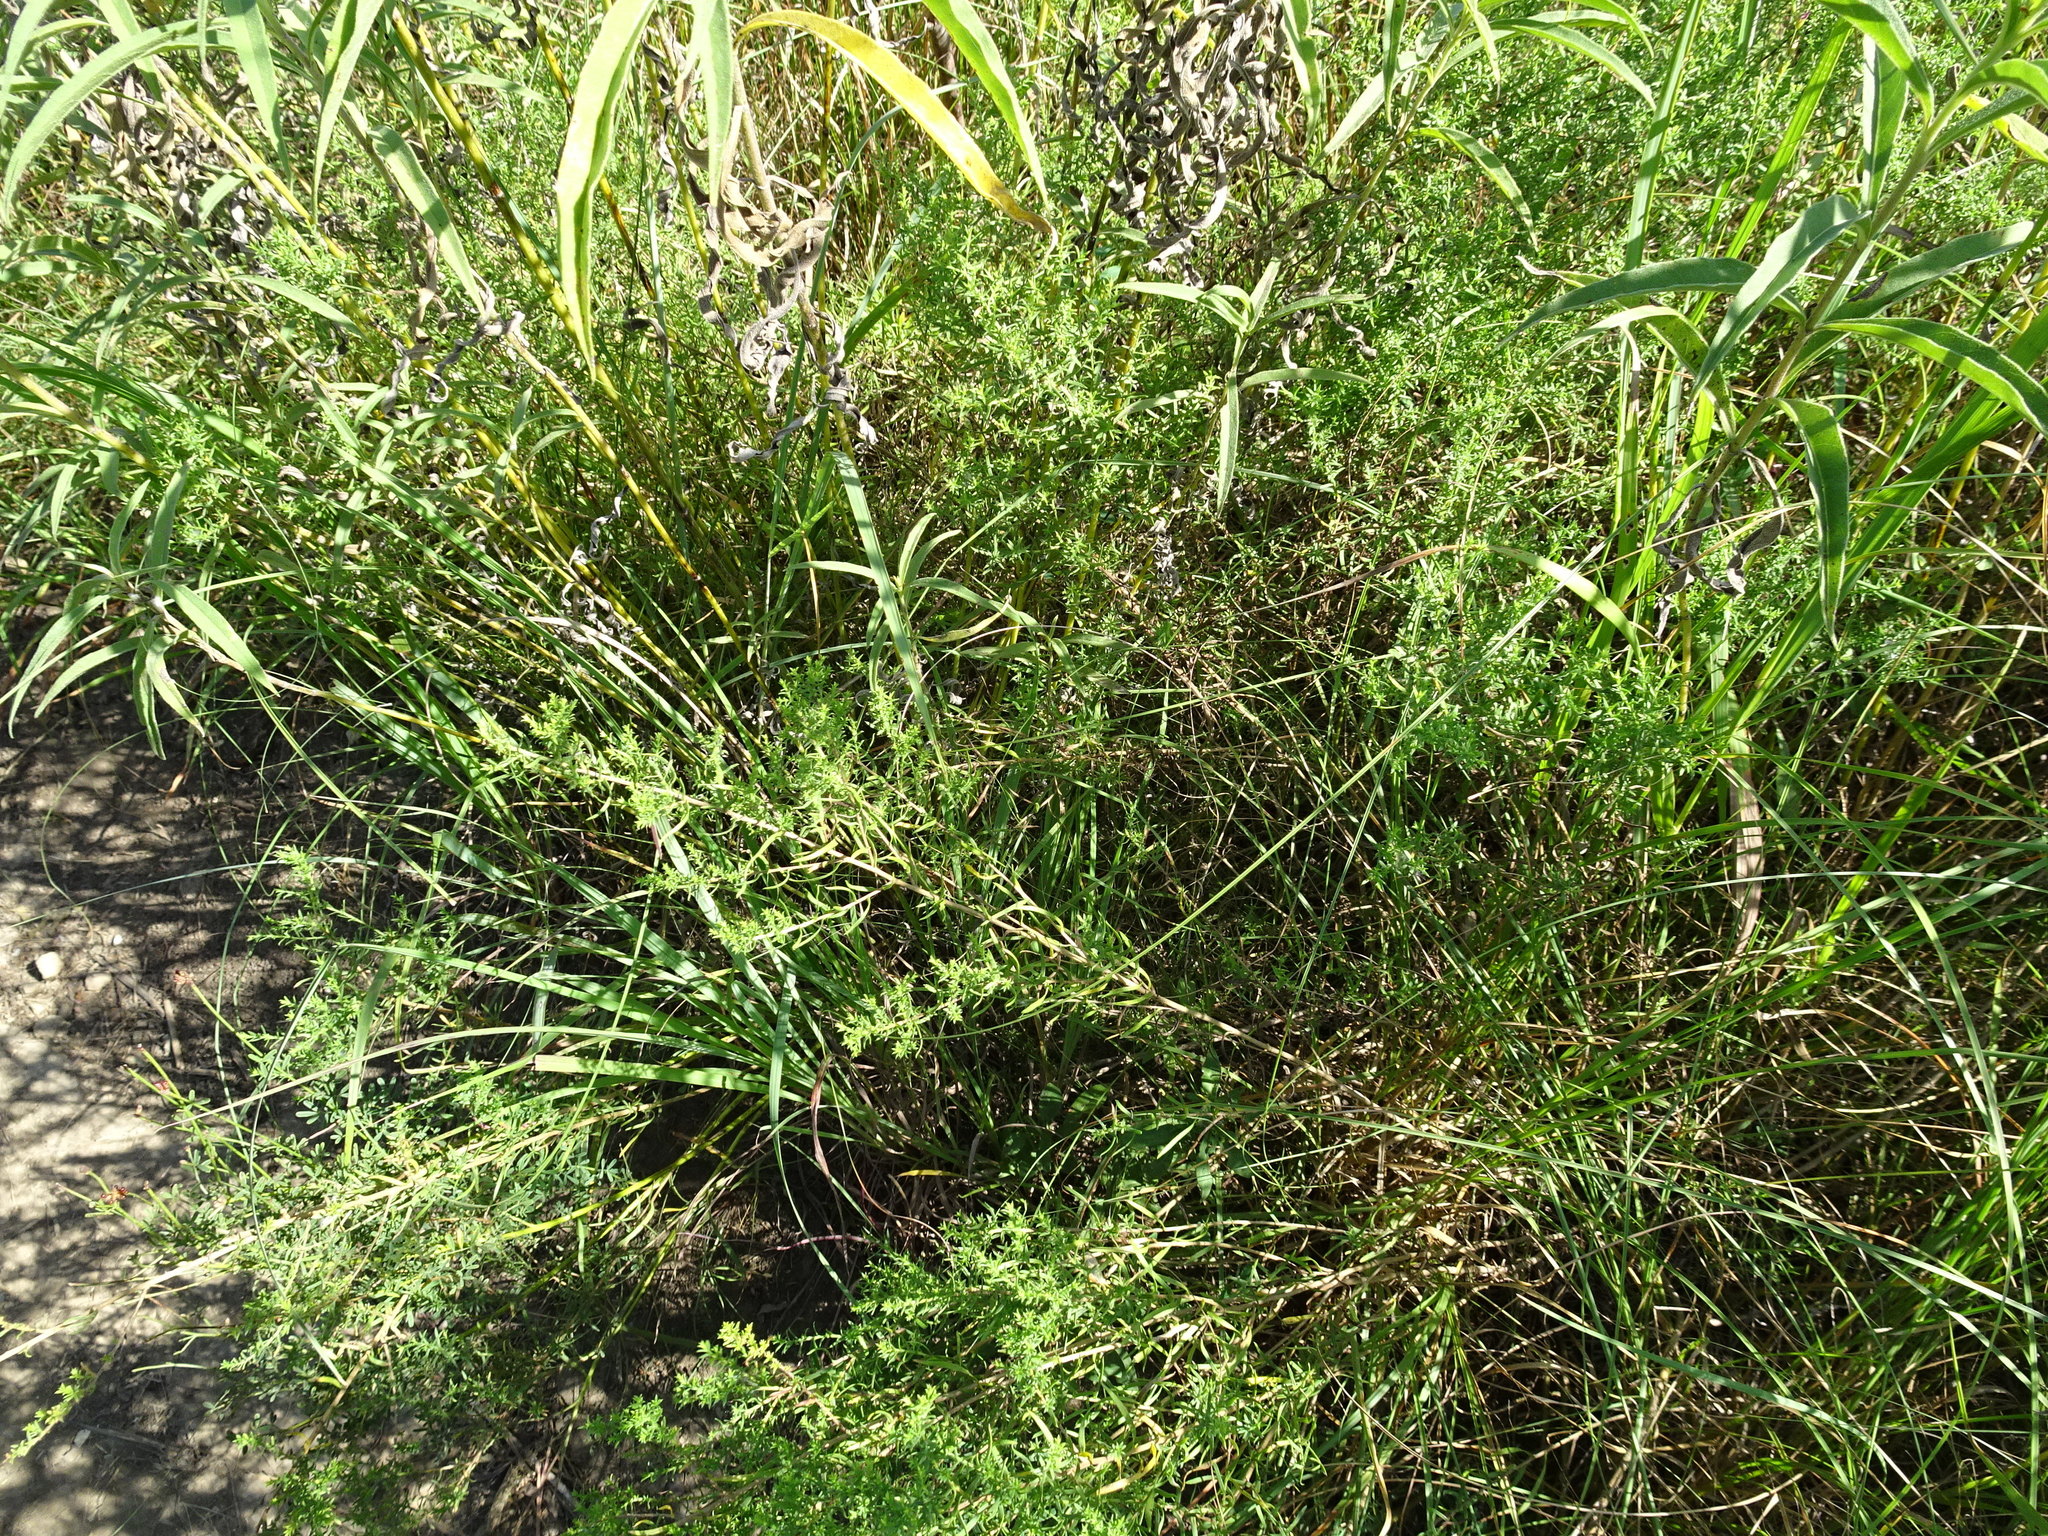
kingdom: Plantae
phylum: Tracheophyta
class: Magnoliopsida
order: Asterales
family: Asteraceae
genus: Symphyotrichum
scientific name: Symphyotrichum ericoides
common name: Heath aster
